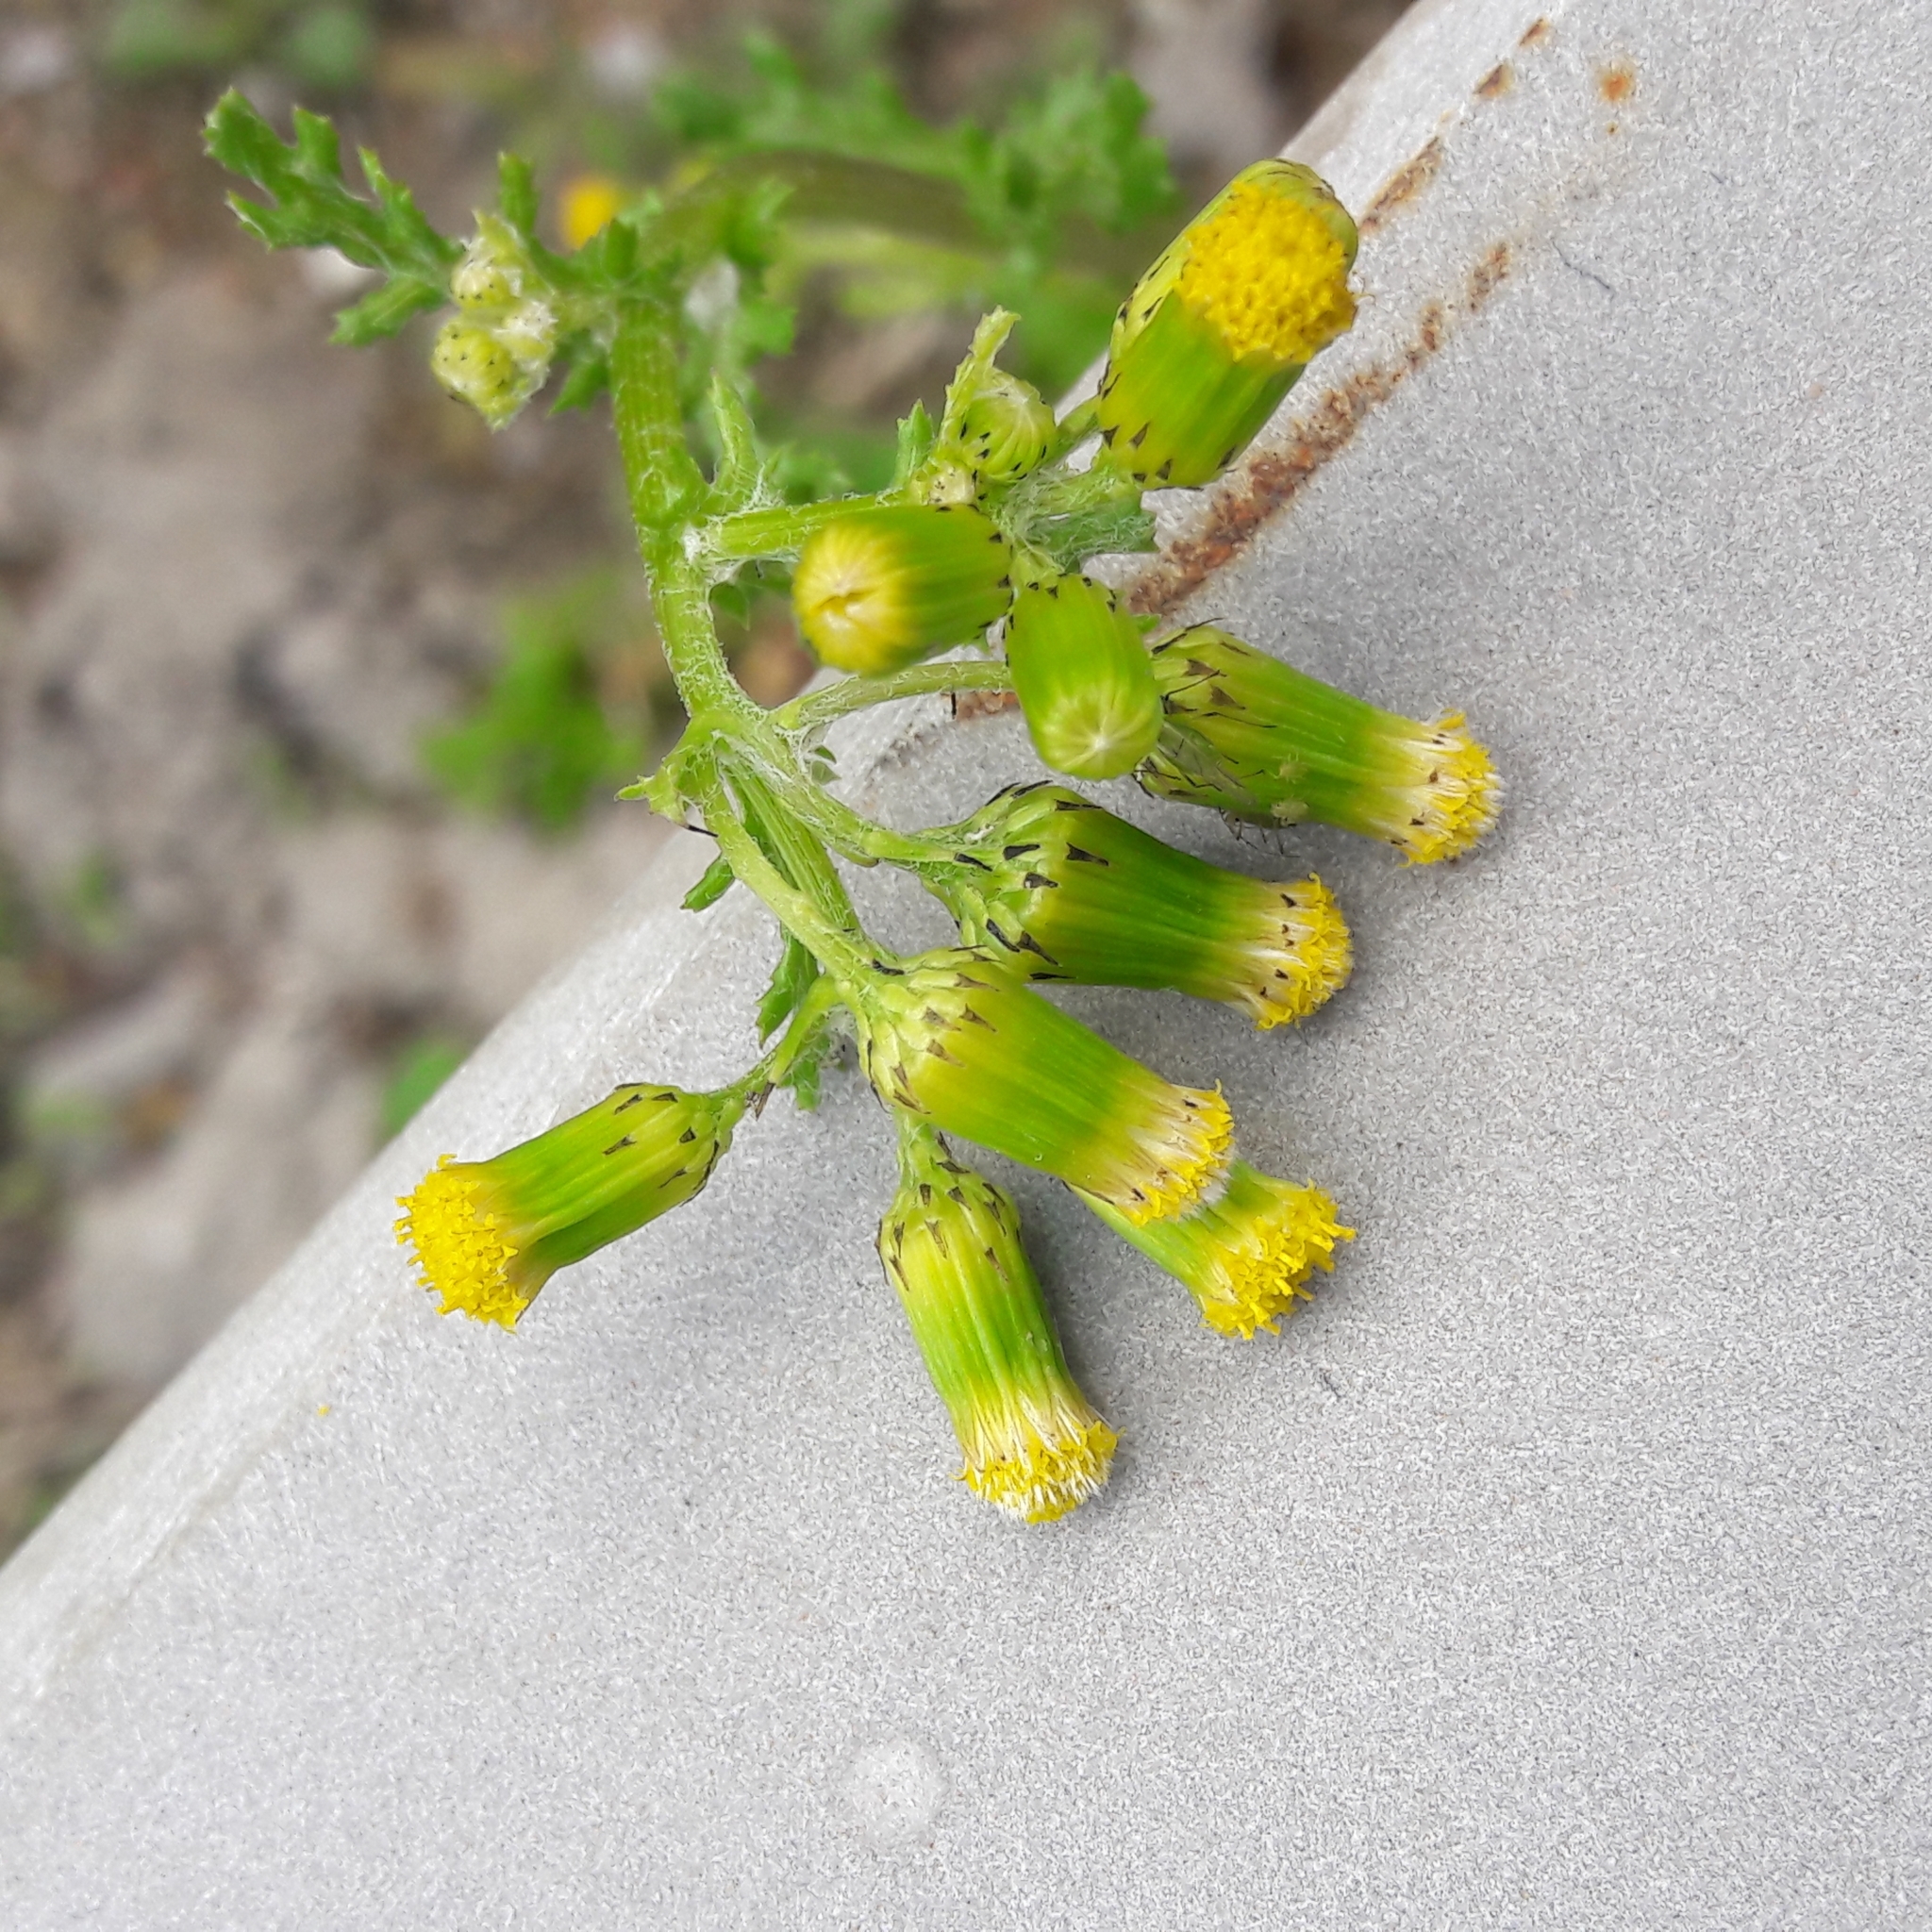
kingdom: Plantae
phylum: Tracheophyta
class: Magnoliopsida
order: Asterales
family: Asteraceae
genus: Senecio
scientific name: Senecio vulgaris
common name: Old-man-in-the-spring
